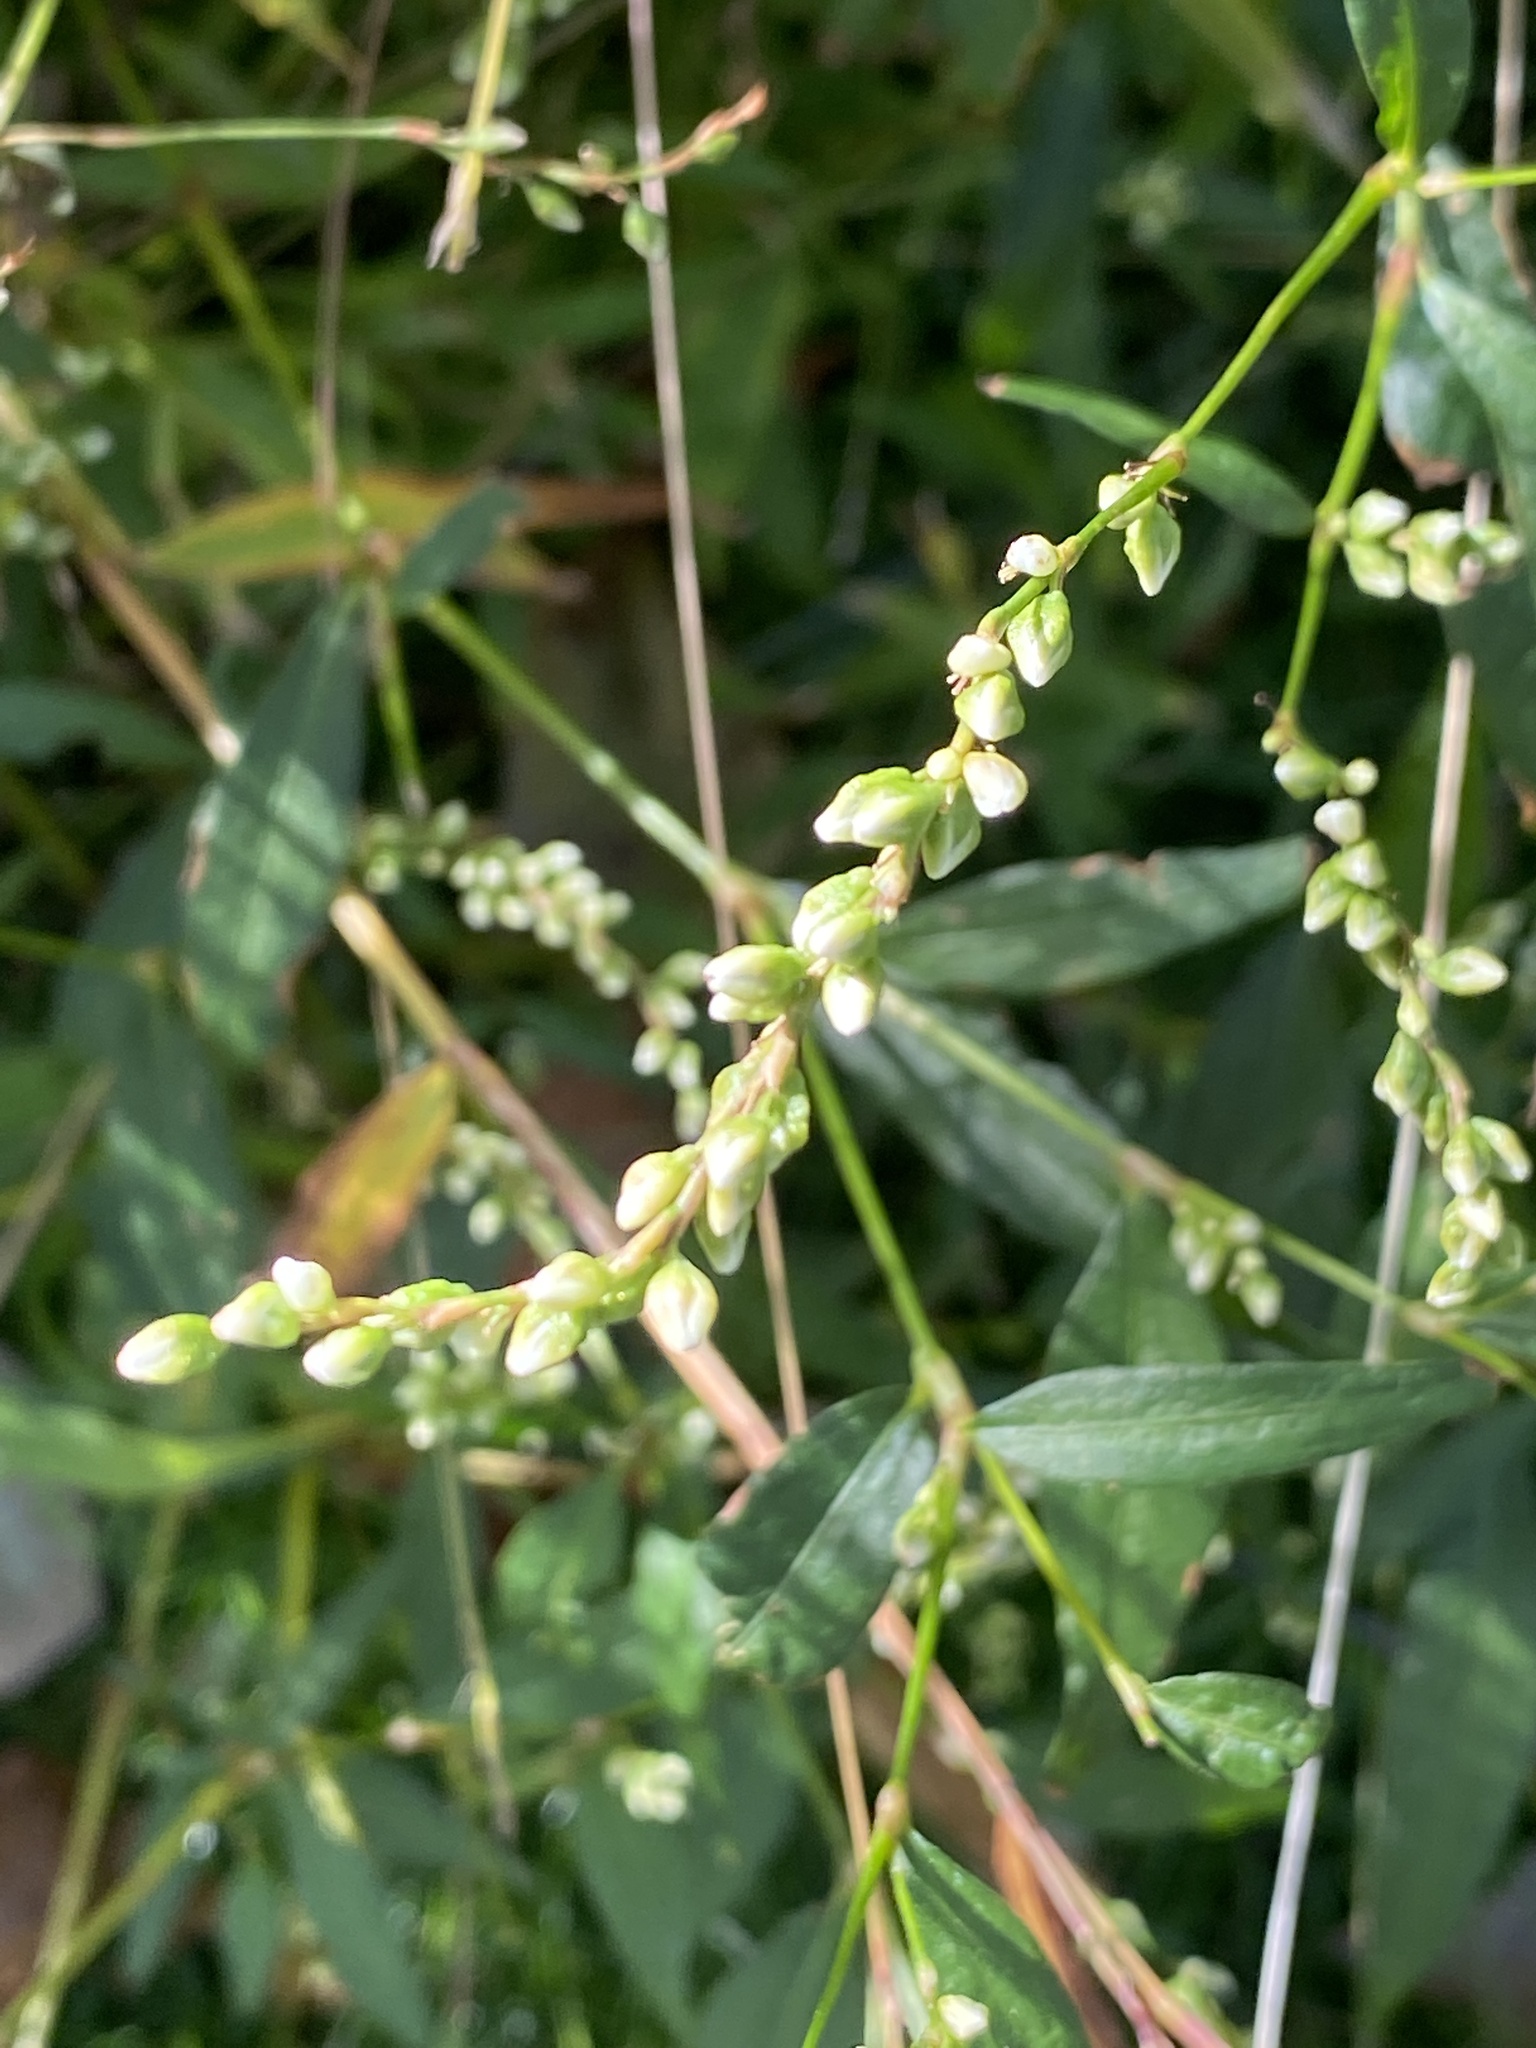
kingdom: Plantae
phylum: Tracheophyta
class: Magnoliopsida
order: Caryophyllales
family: Polygonaceae
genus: Persicaria
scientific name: Persicaria punctata
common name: Dotted smartweed
